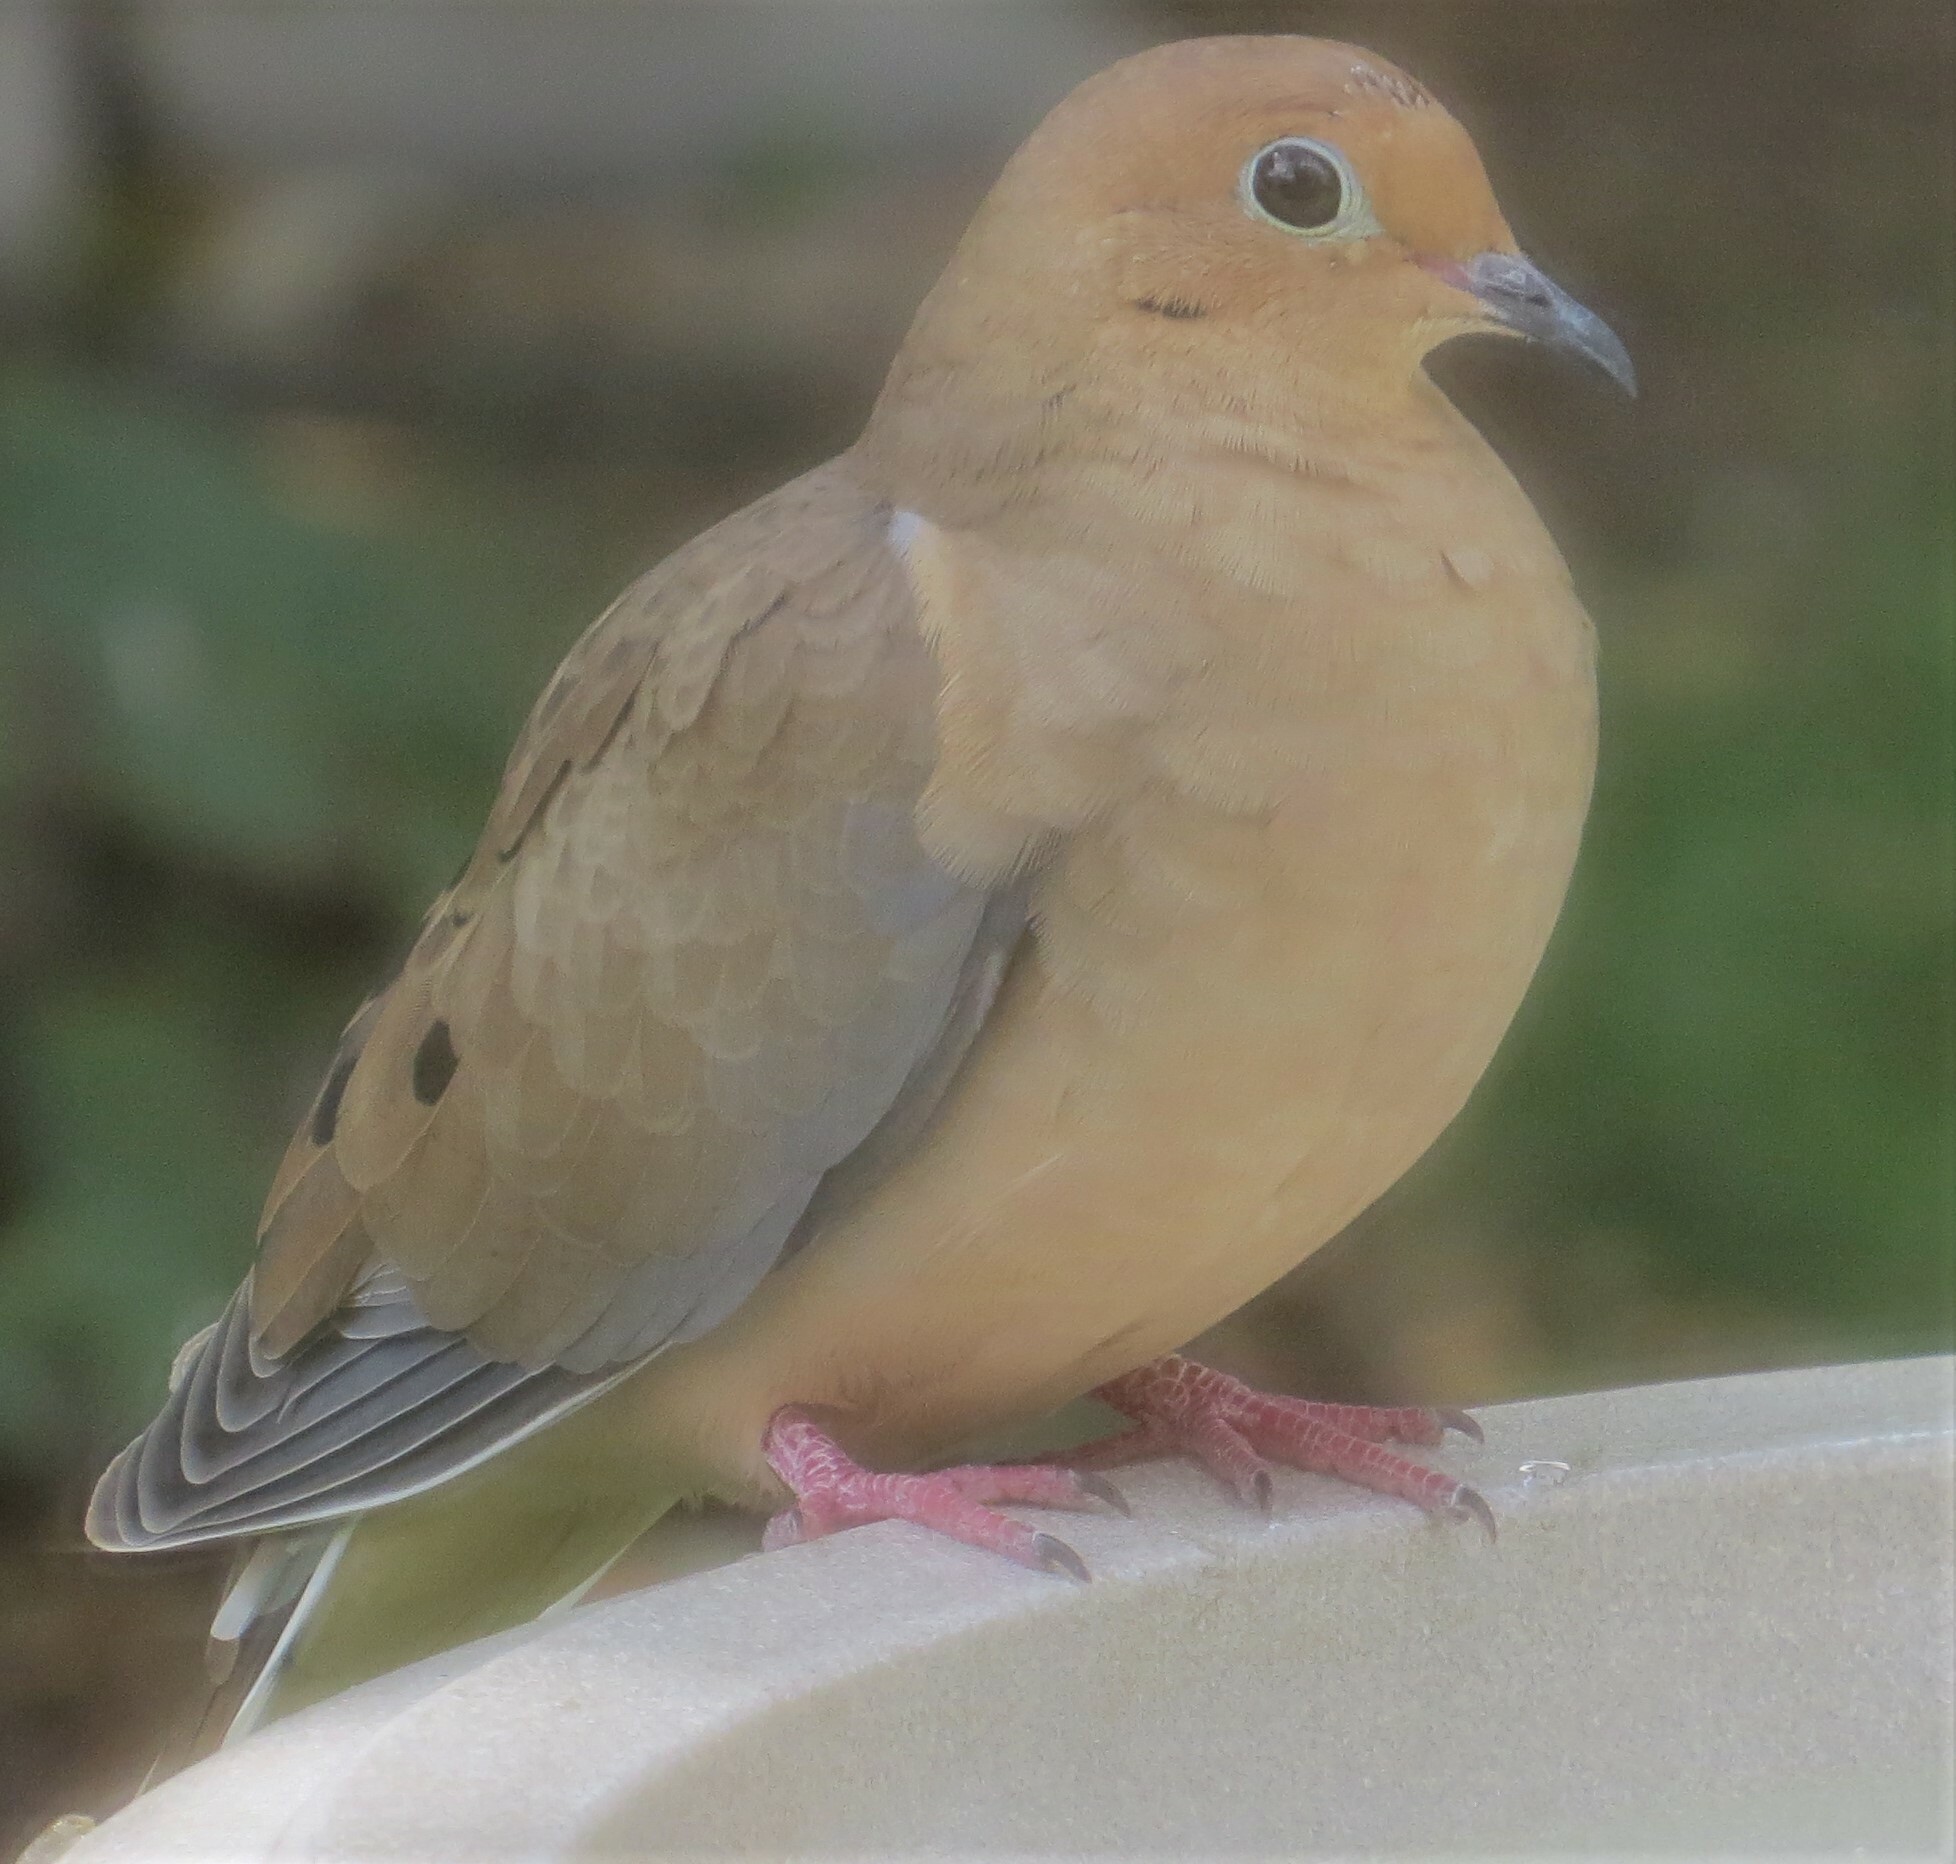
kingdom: Animalia
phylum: Chordata
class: Aves
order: Columbiformes
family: Columbidae
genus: Zenaida
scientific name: Zenaida macroura
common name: Mourning dove
